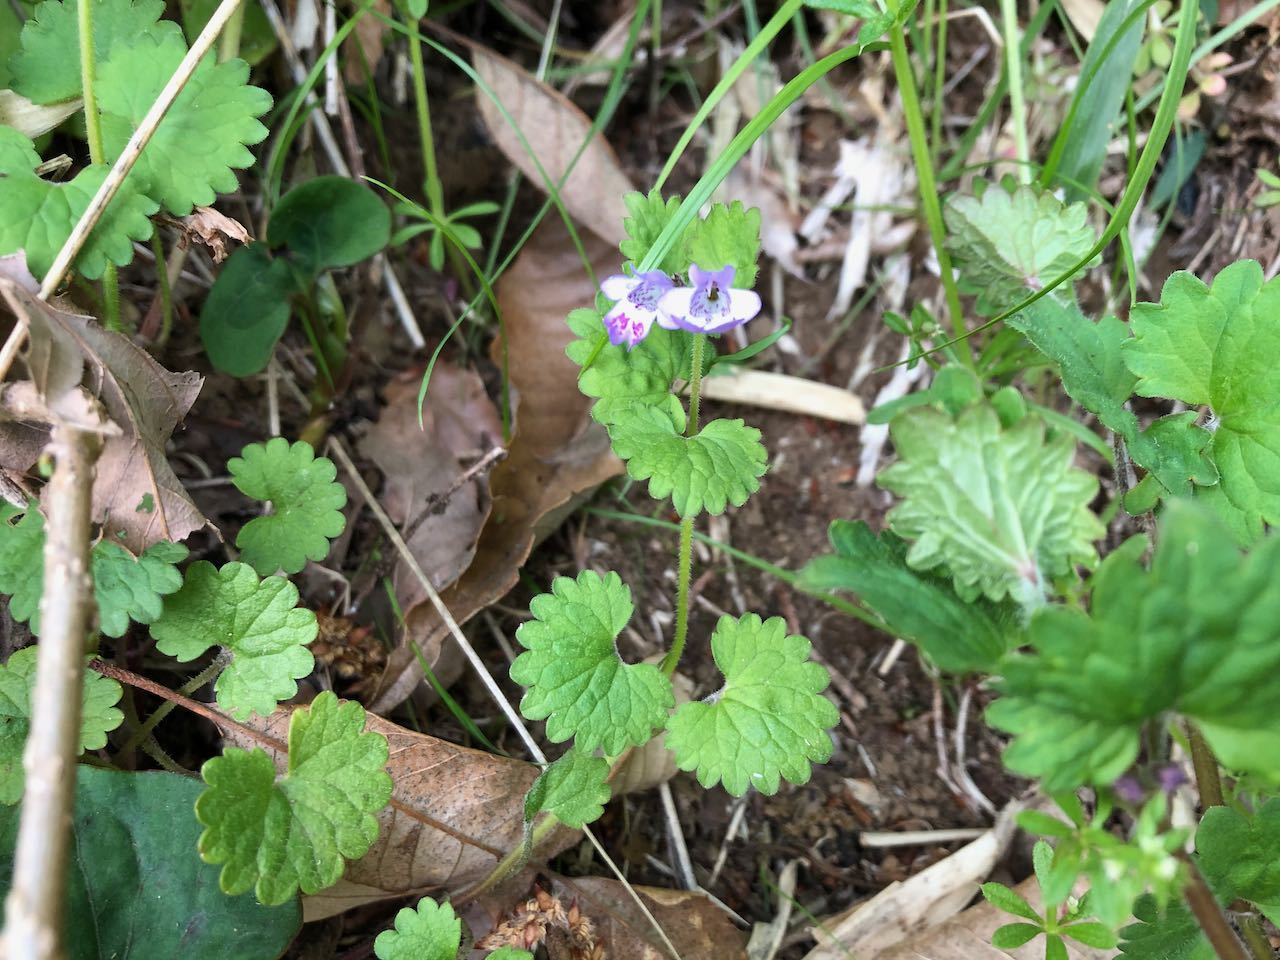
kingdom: Plantae
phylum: Tracheophyta
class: Magnoliopsida
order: Lamiales
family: Lamiaceae
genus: Glechoma
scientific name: Glechoma grandis
